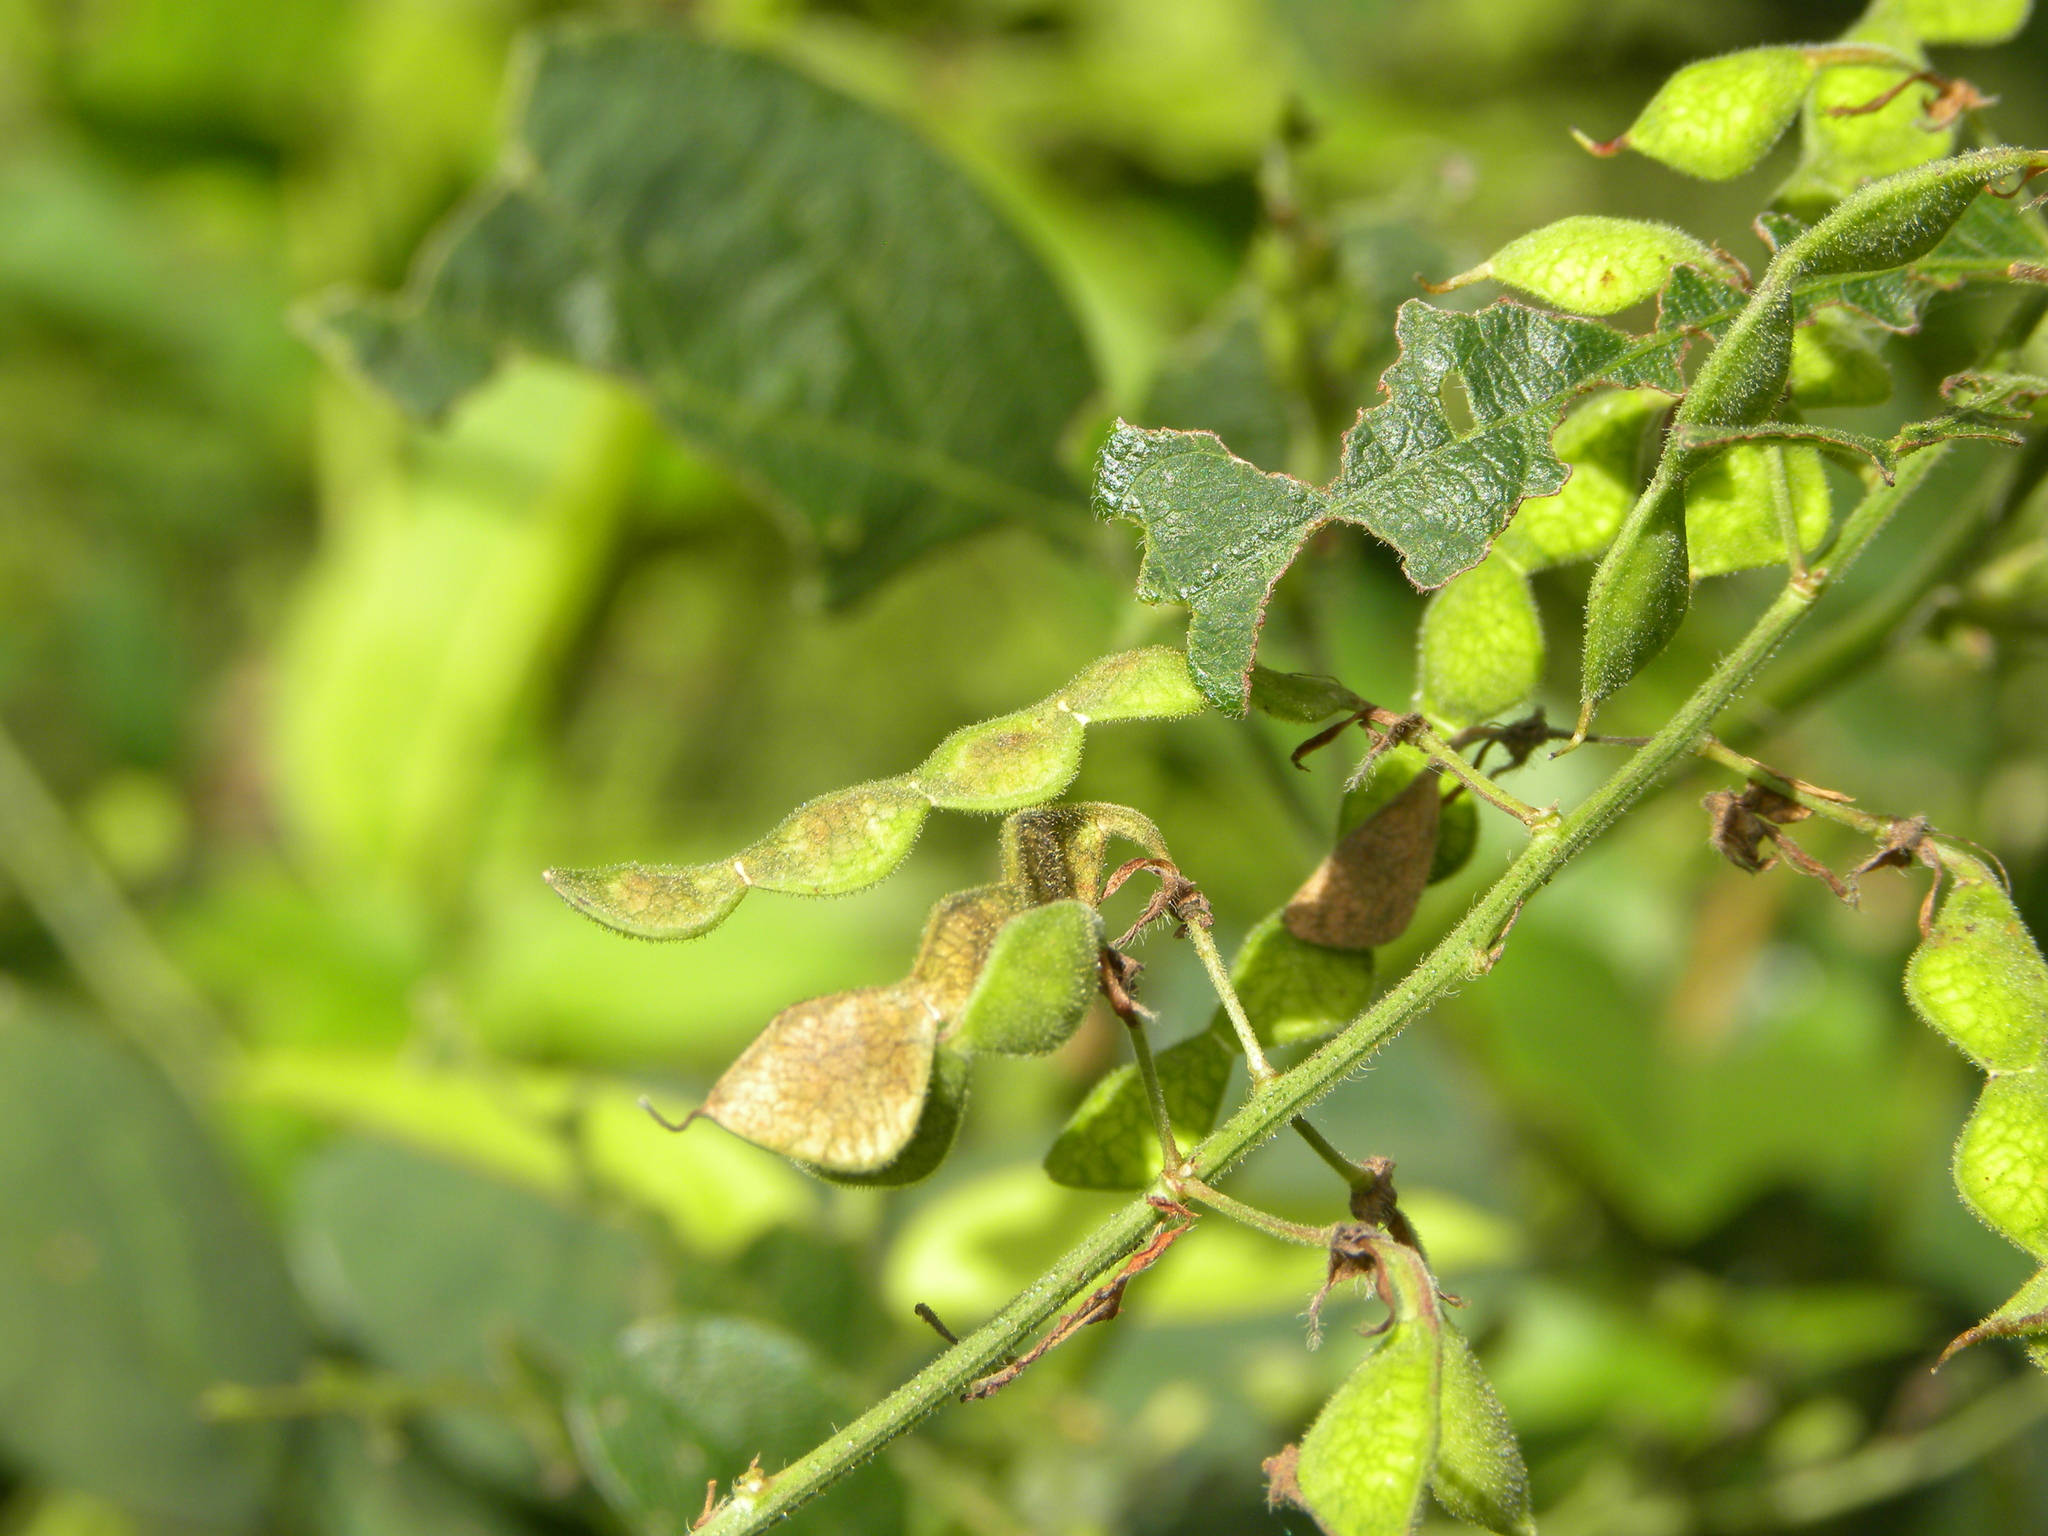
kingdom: Plantae
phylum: Tracheophyta
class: Magnoliopsida
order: Fabales
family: Fabaceae
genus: Desmodium
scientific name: Desmodium paniculatum
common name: Panicled tick-clover
